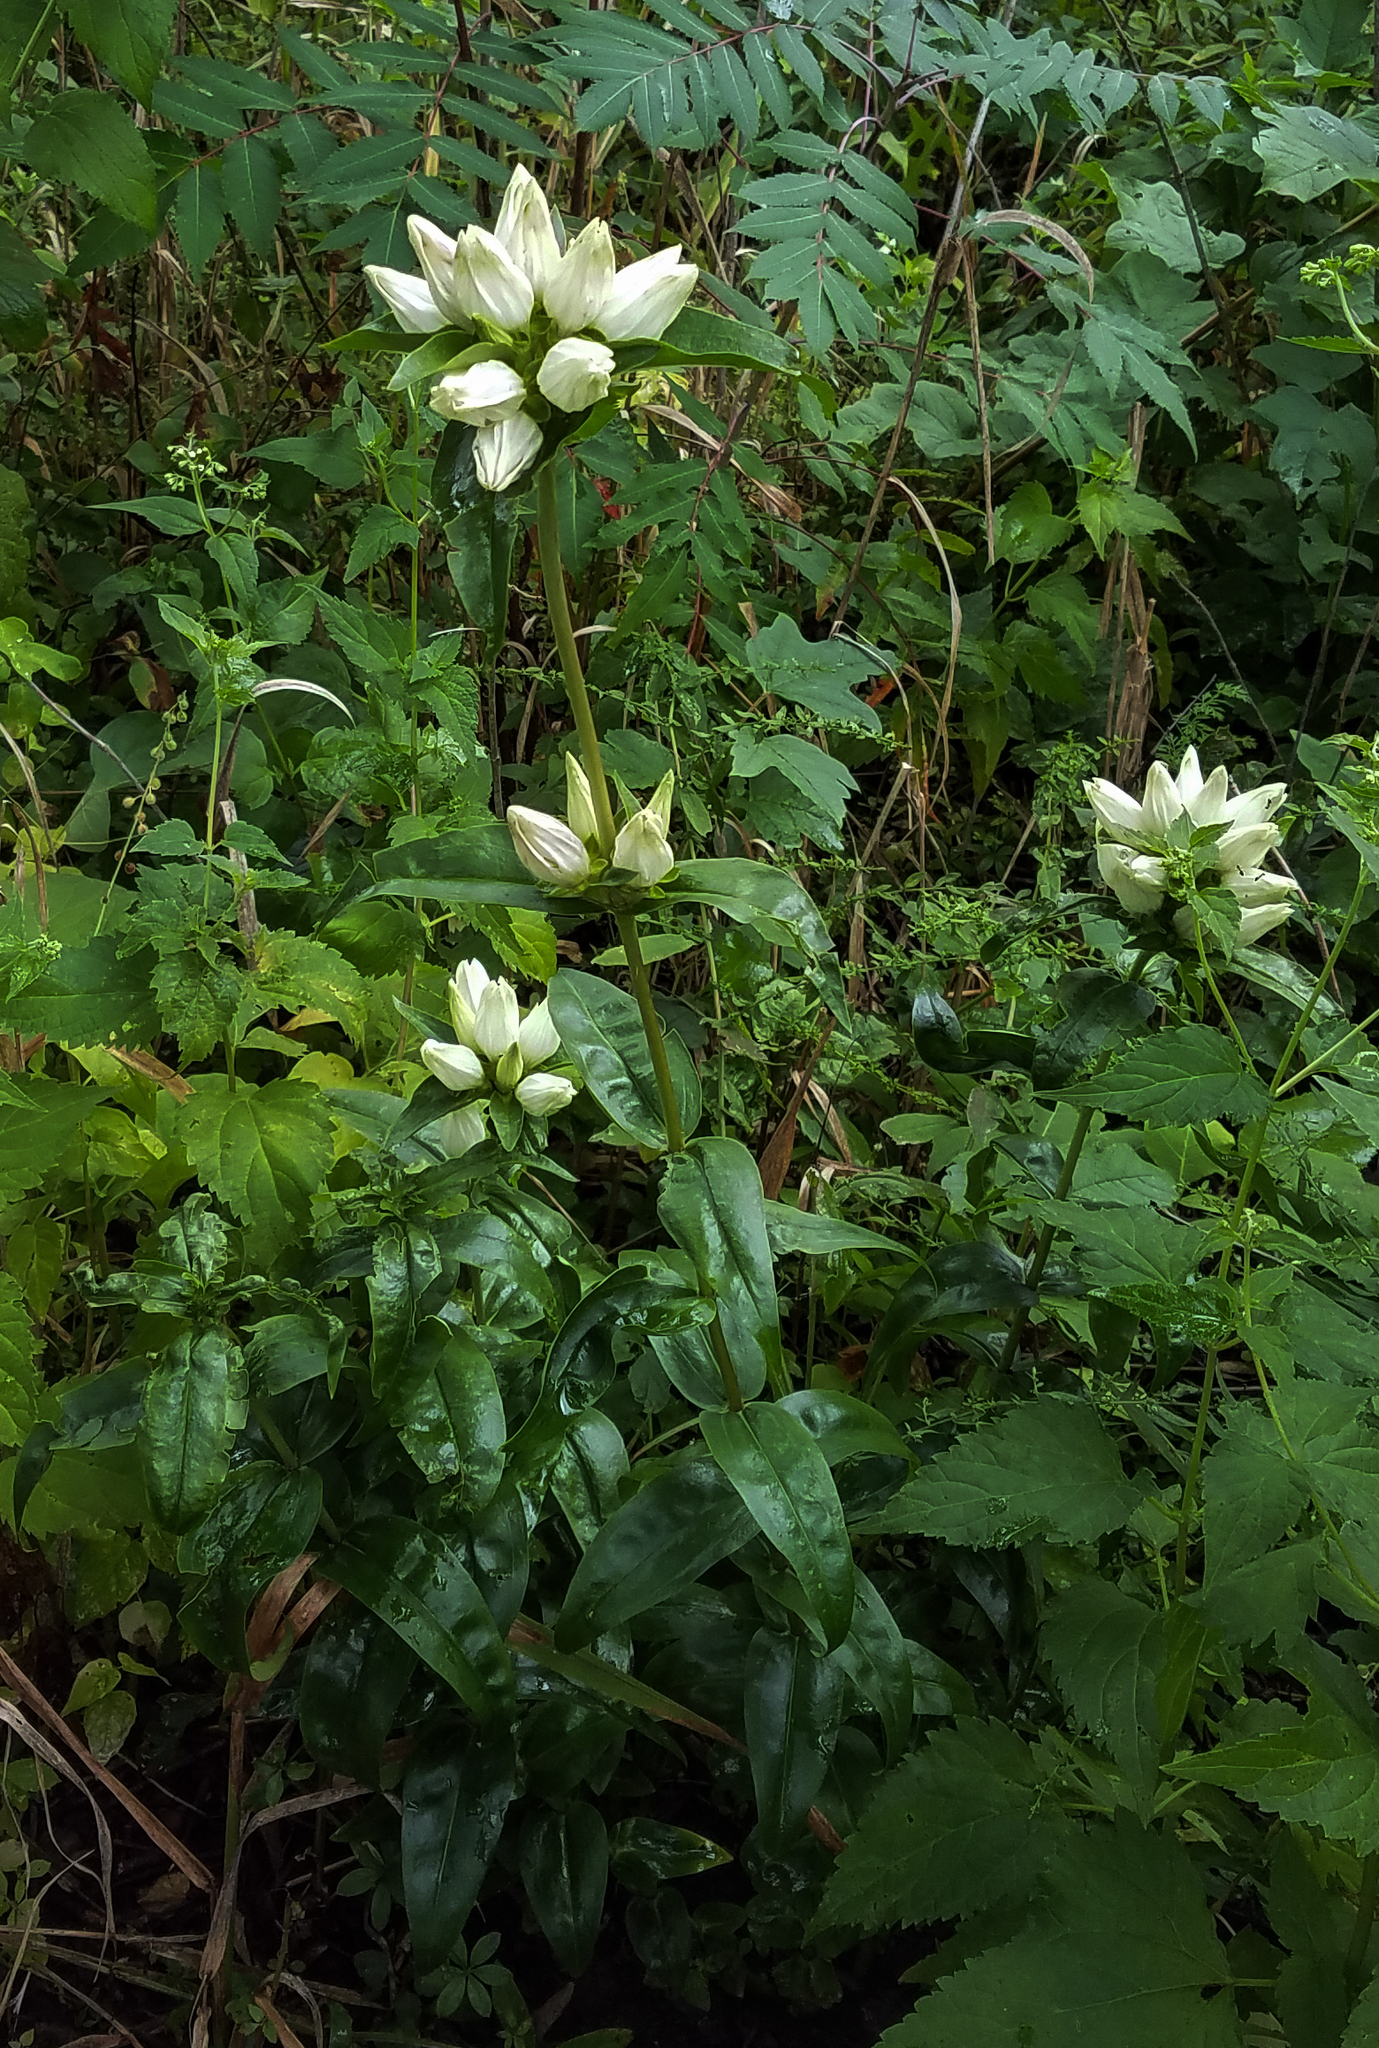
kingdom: Plantae
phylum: Tracheophyta
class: Magnoliopsida
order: Gentianales
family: Gentianaceae
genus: Gentiana
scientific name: Gentiana alba
